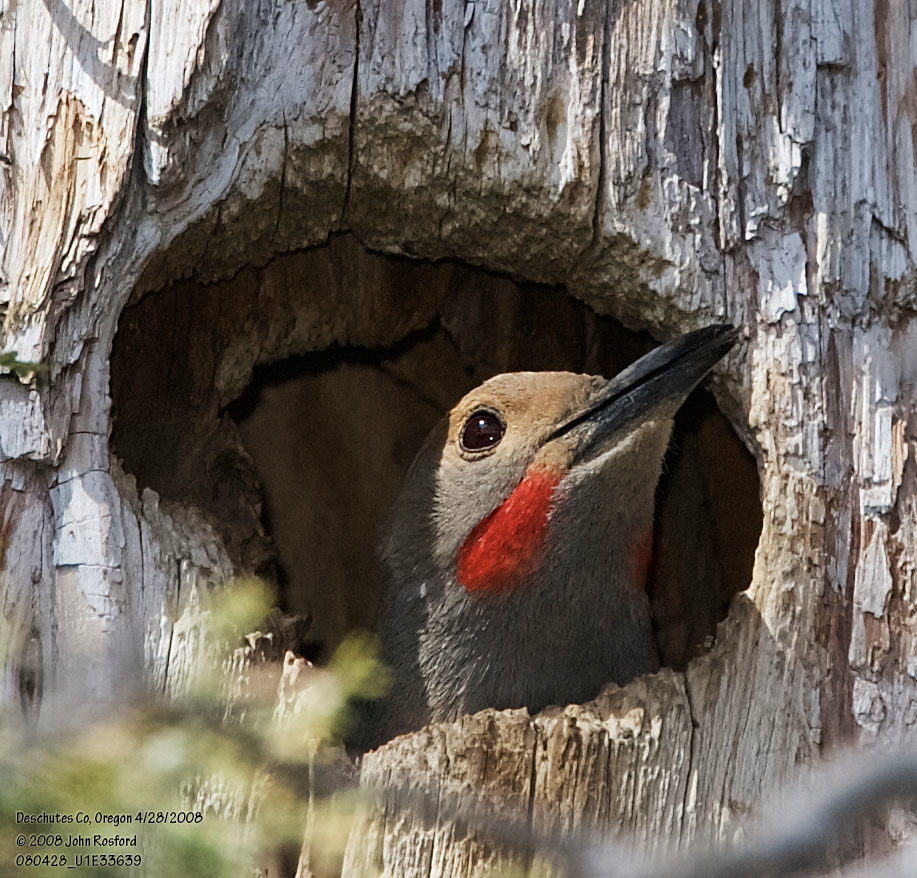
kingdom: Animalia
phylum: Chordata
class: Aves
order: Piciformes
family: Picidae
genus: Colaptes
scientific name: Colaptes auratus
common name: Northern flicker
